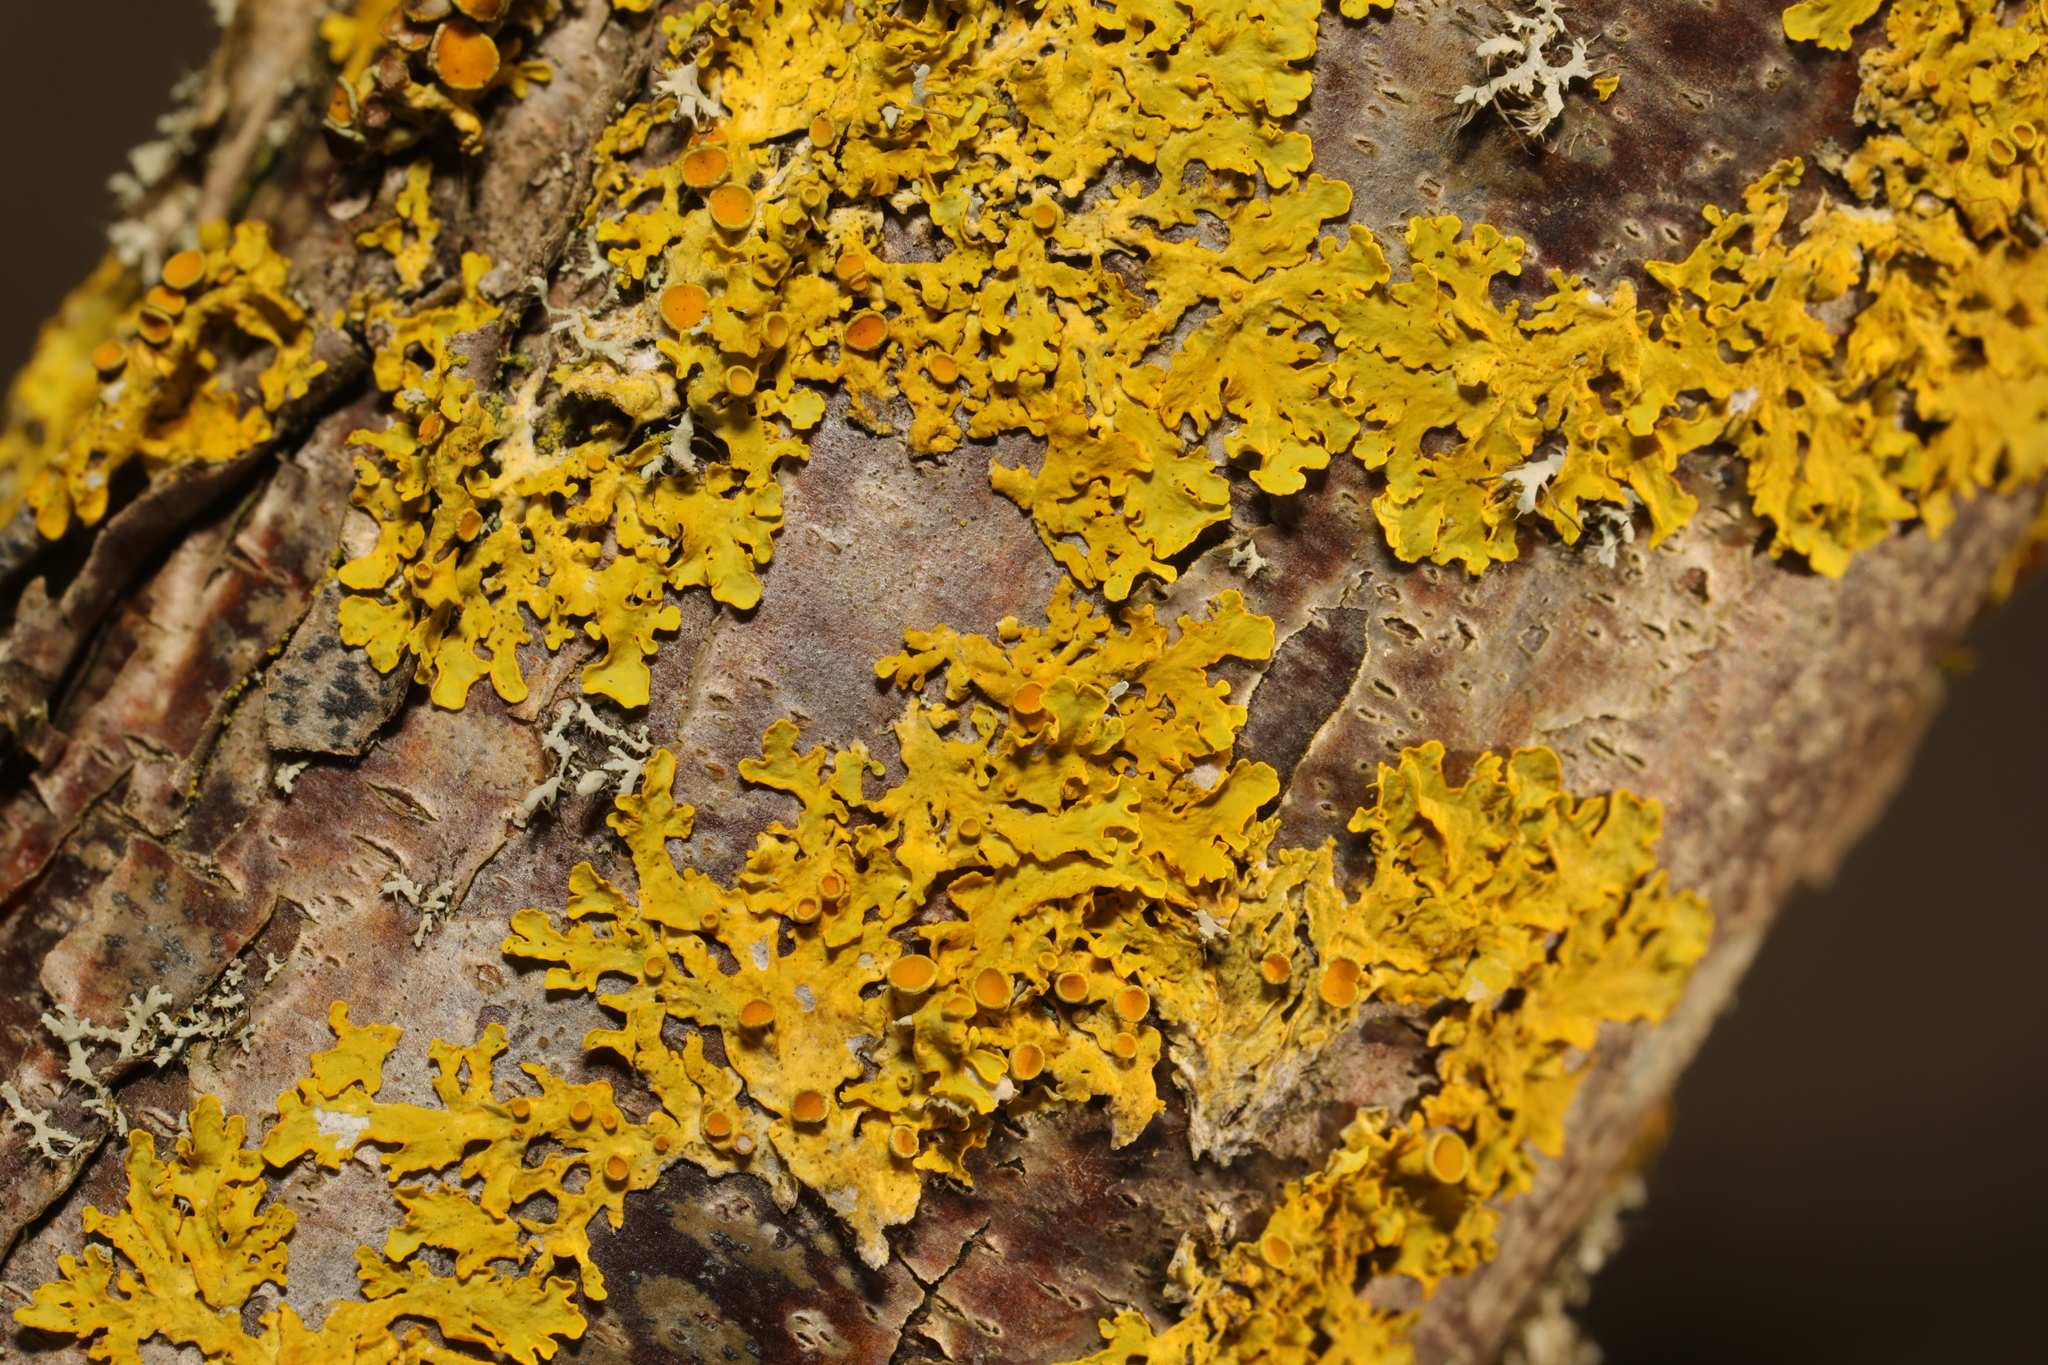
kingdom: Fungi
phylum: Ascomycota
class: Lecanoromycetes
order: Teloschistales
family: Teloschistaceae
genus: Xanthoria
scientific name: Xanthoria parietina
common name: Common orange lichen
